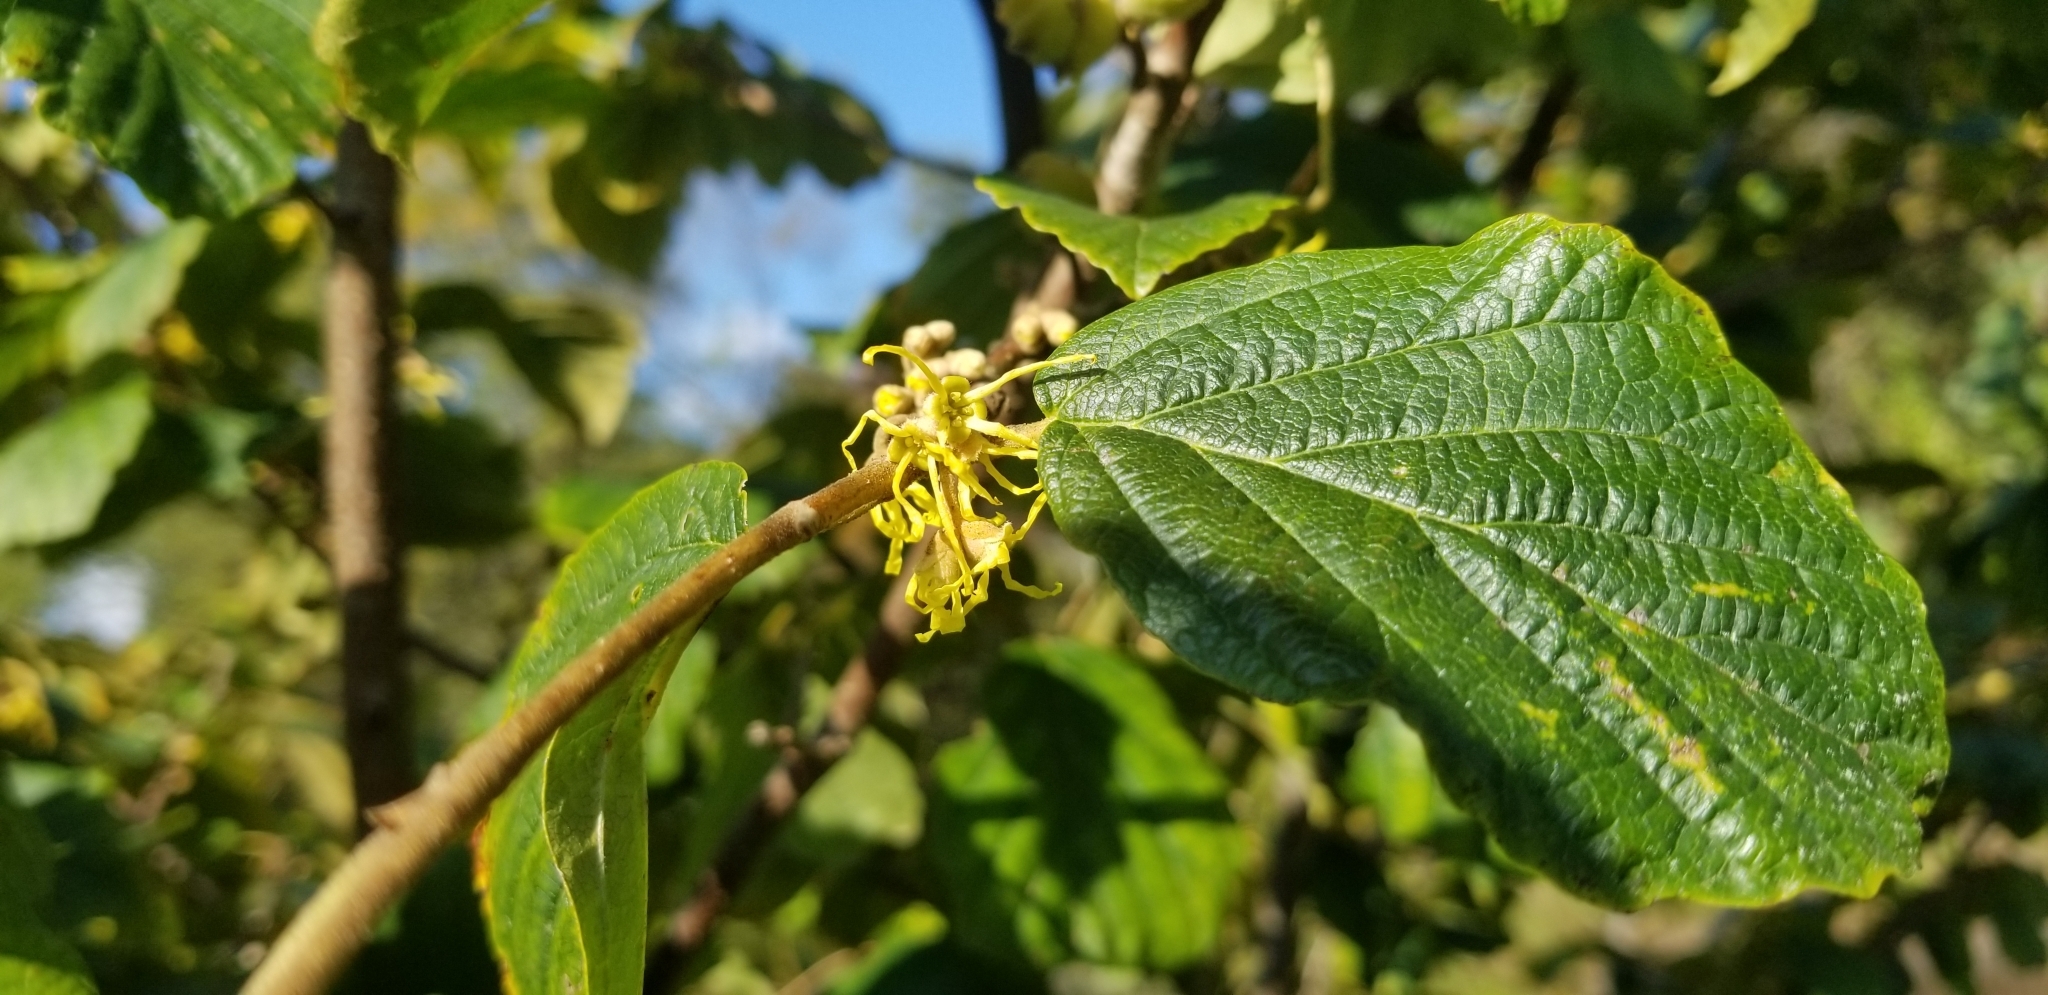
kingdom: Plantae
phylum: Tracheophyta
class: Magnoliopsida
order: Saxifragales
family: Hamamelidaceae
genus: Hamamelis
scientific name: Hamamelis virginiana
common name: Witch-hazel
